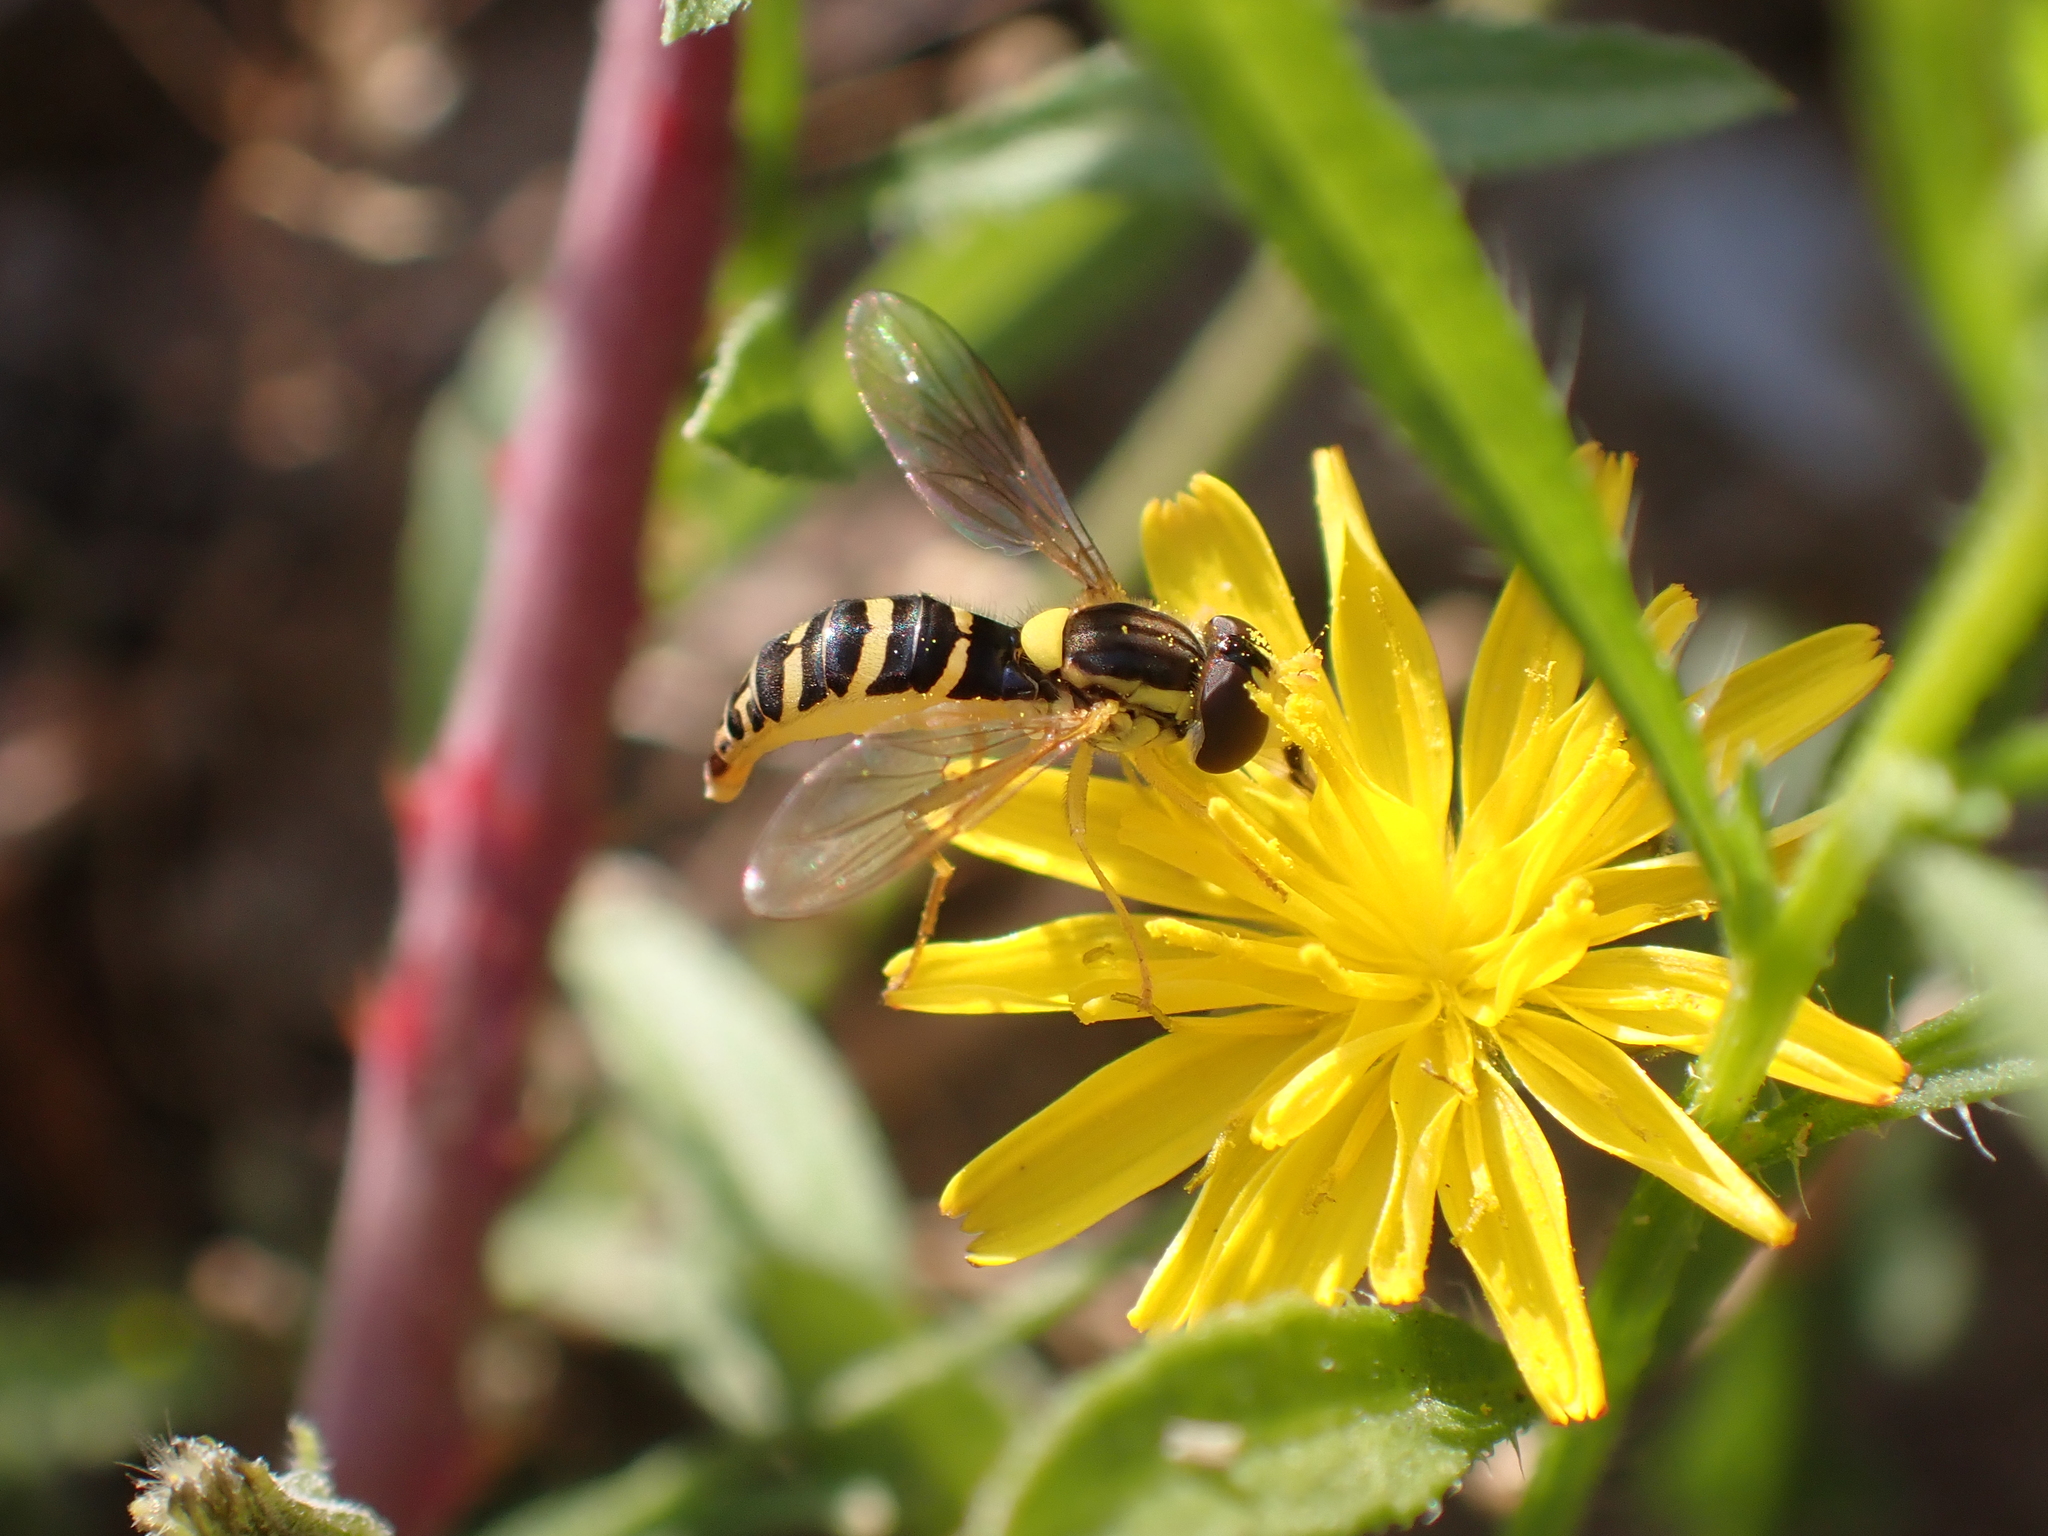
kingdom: Animalia
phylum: Arthropoda
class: Insecta
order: Diptera
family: Syrphidae
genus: Sphaerophoria
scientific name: Sphaerophoria
